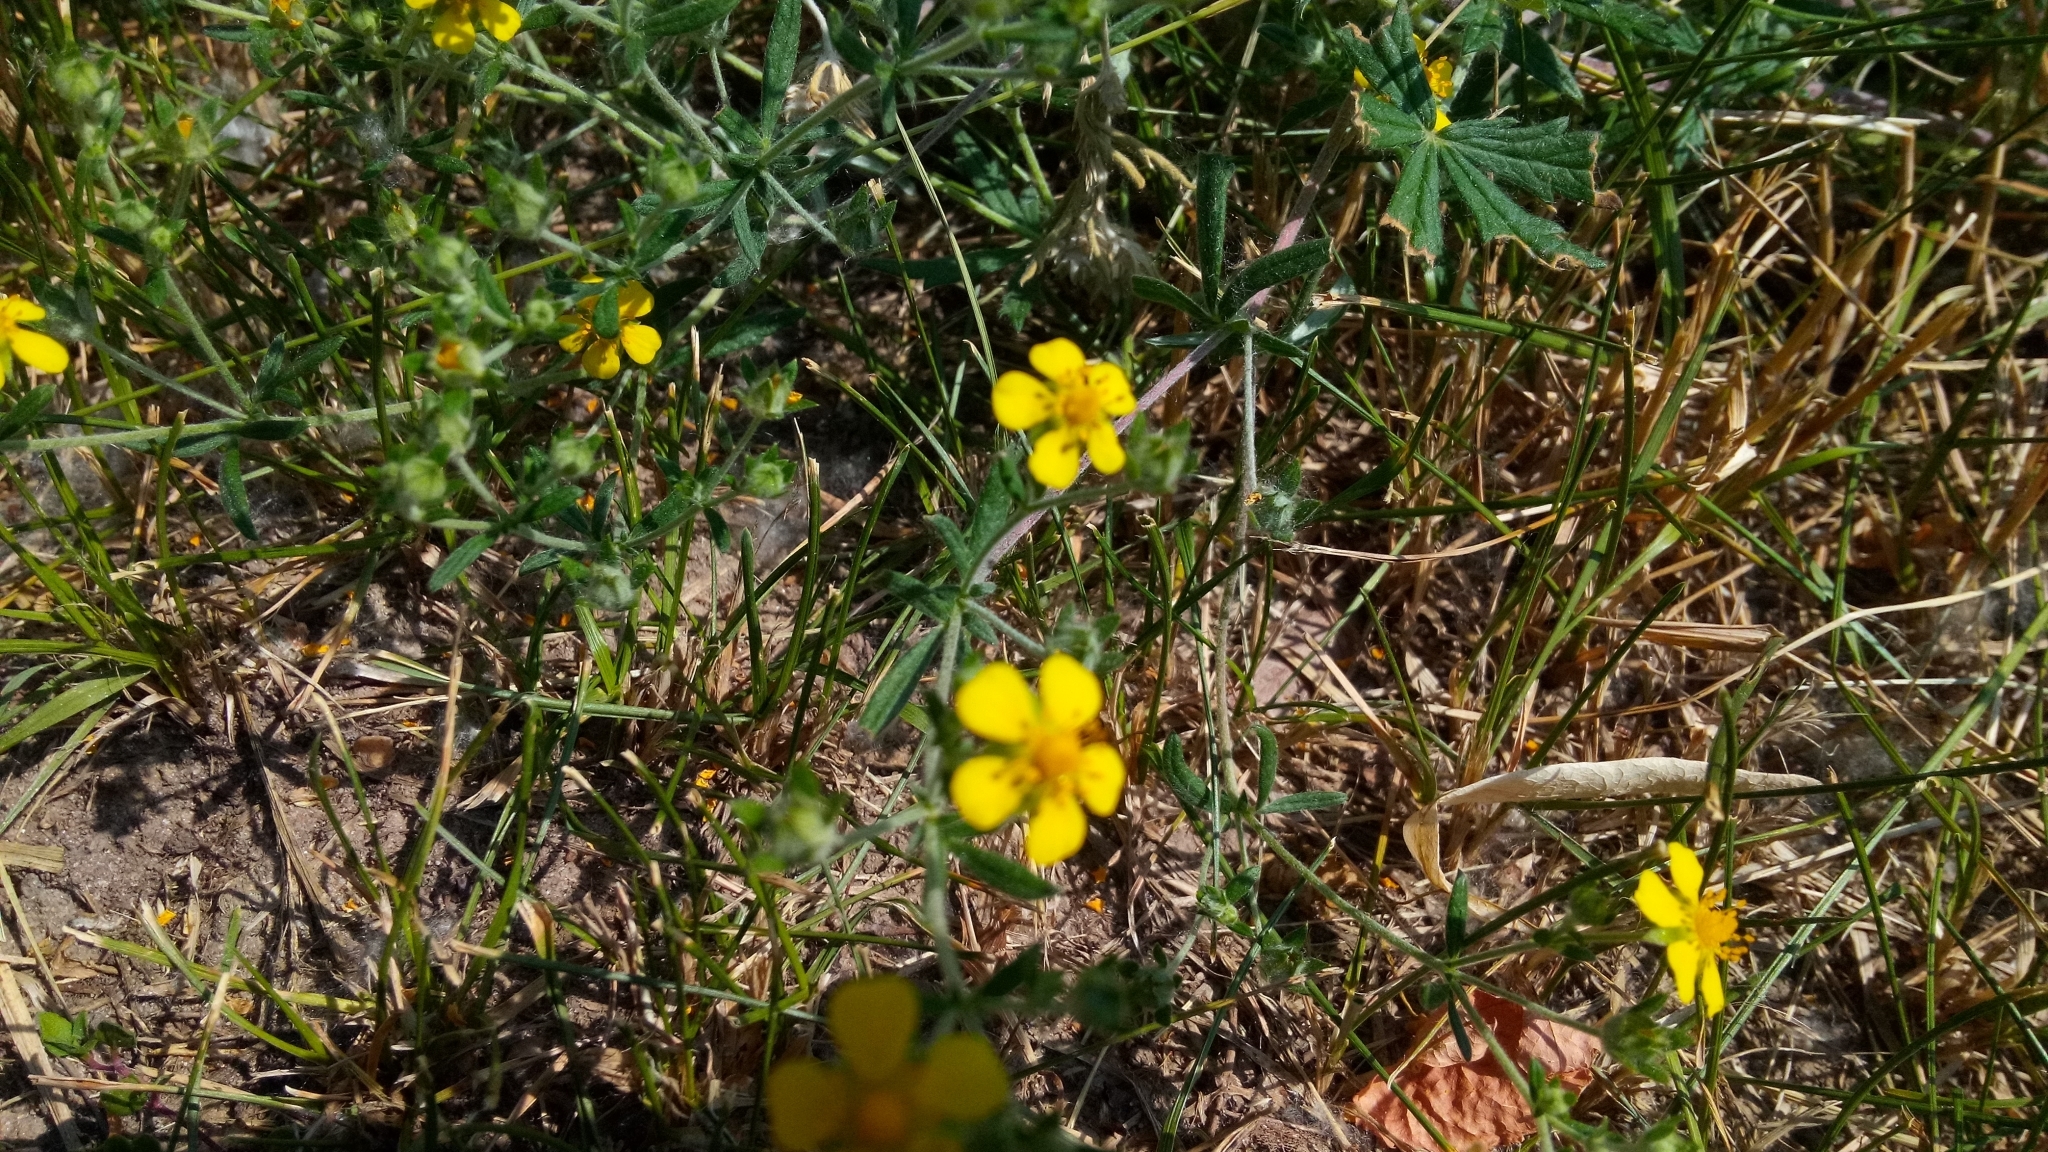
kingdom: Plantae
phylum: Tracheophyta
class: Magnoliopsida
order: Rosales
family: Rosaceae
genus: Potentilla
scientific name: Potentilla argentea
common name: Hoary cinquefoil
